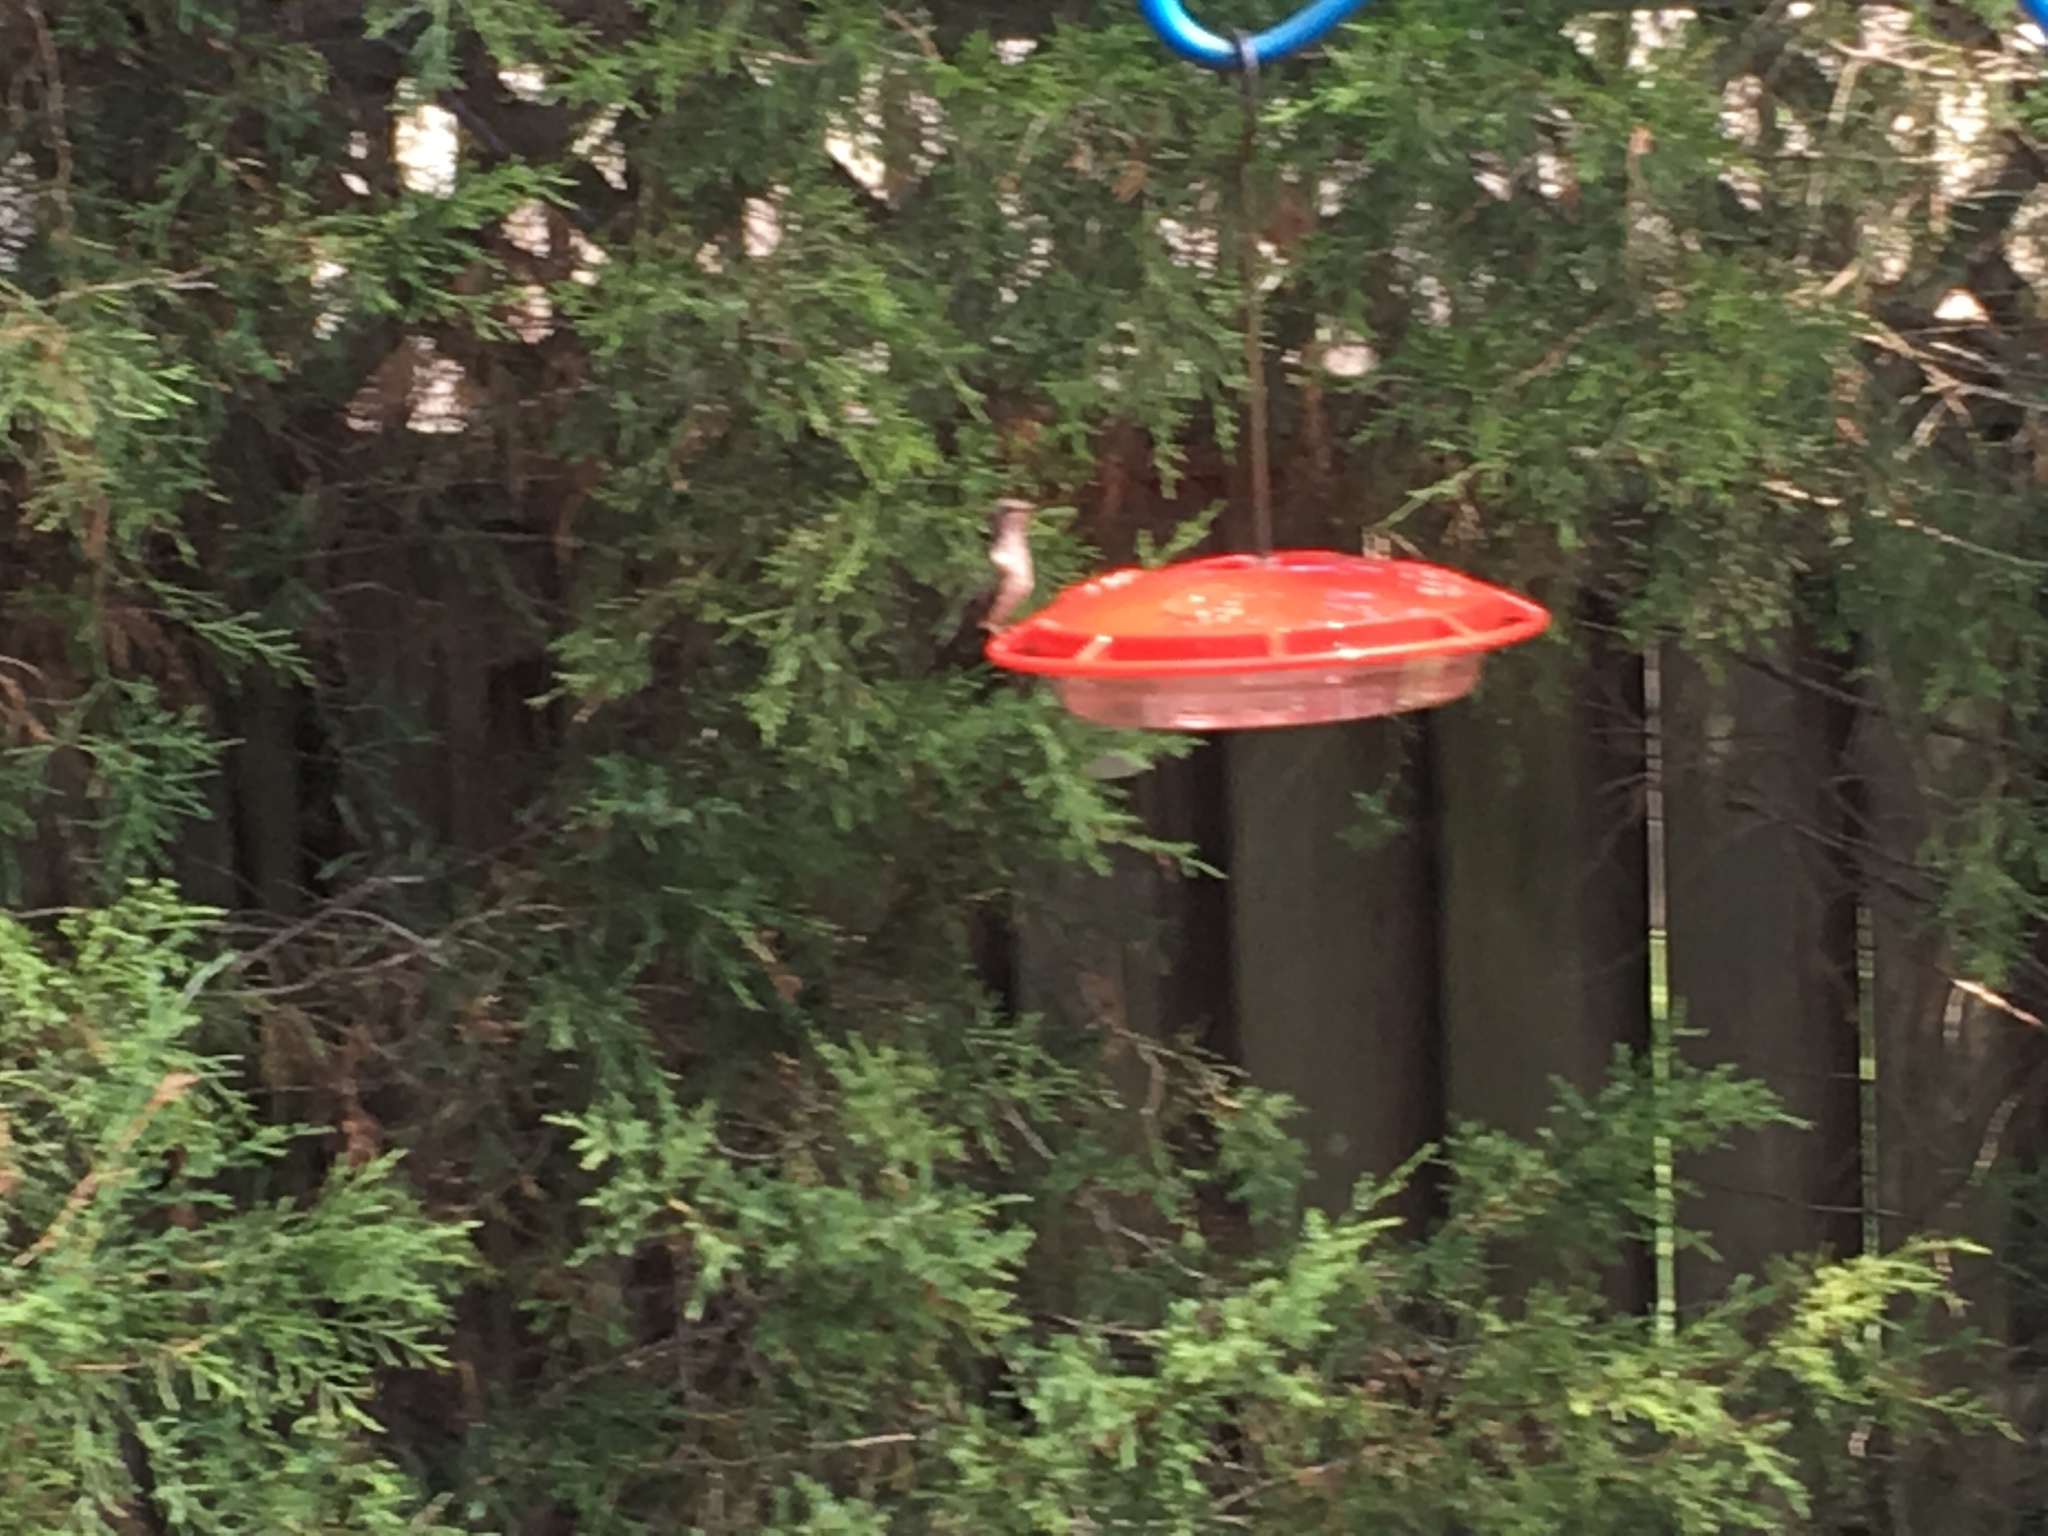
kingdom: Animalia
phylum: Chordata
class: Aves
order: Apodiformes
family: Trochilidae
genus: Archilochus
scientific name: Archilochus colubris
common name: Ruby-throated hummingbird
